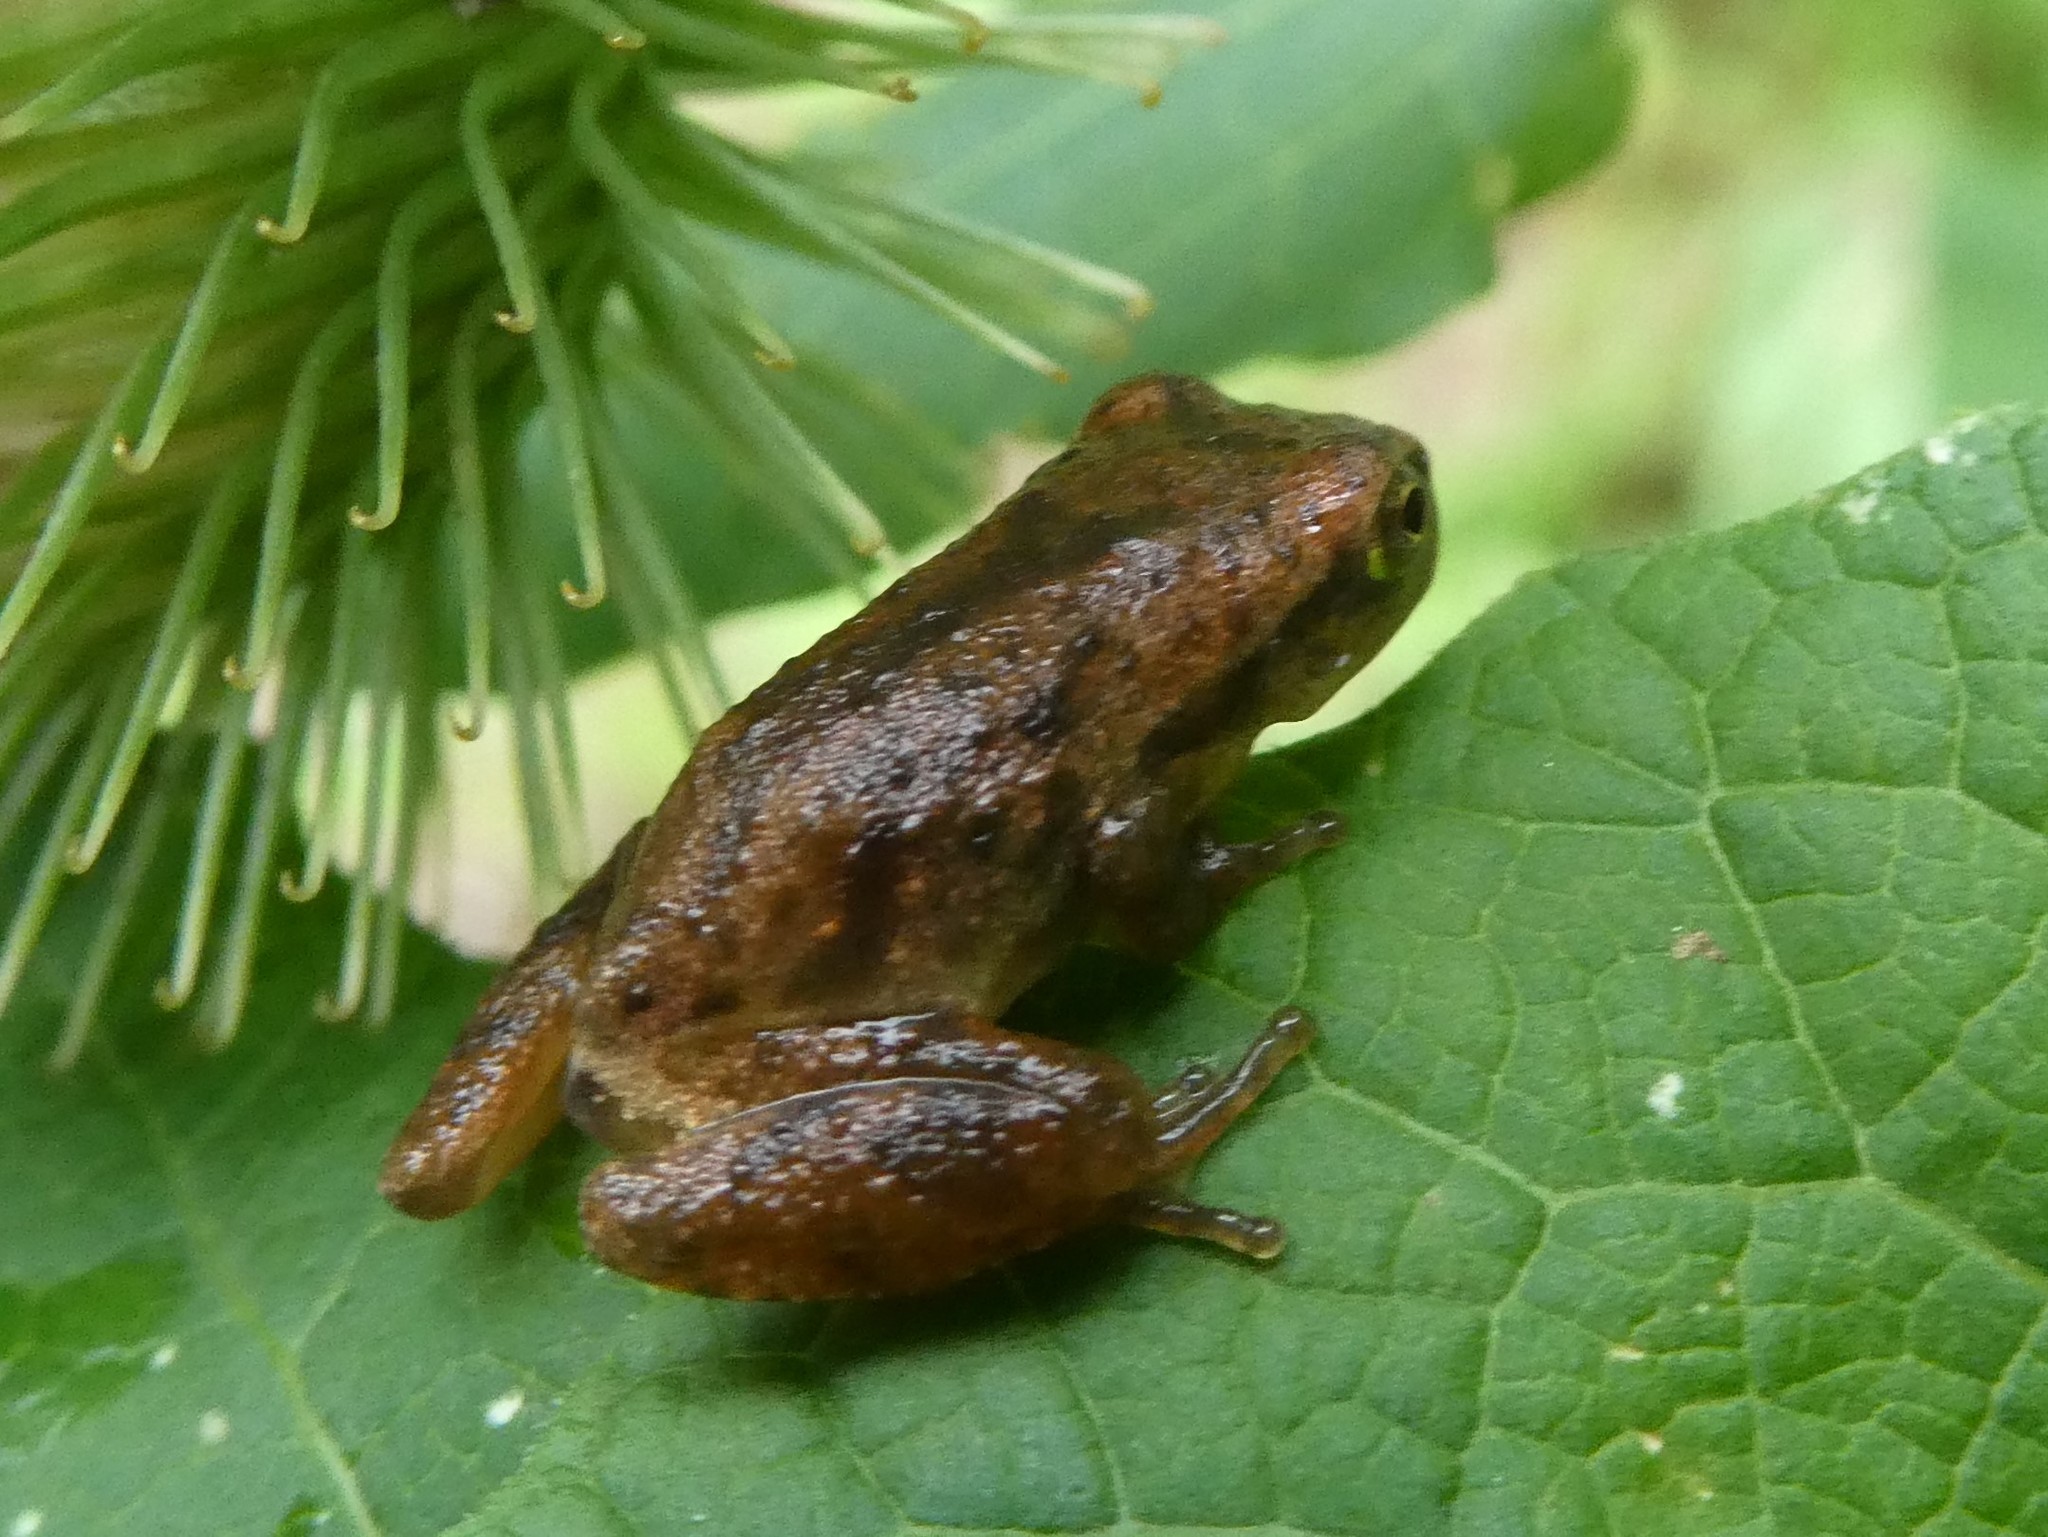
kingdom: Animalia
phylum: Chordata
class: Amphibia
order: Anura
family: Hylidae
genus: Pseudacris
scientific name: Pseudacris crucifer
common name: Spring peeper
